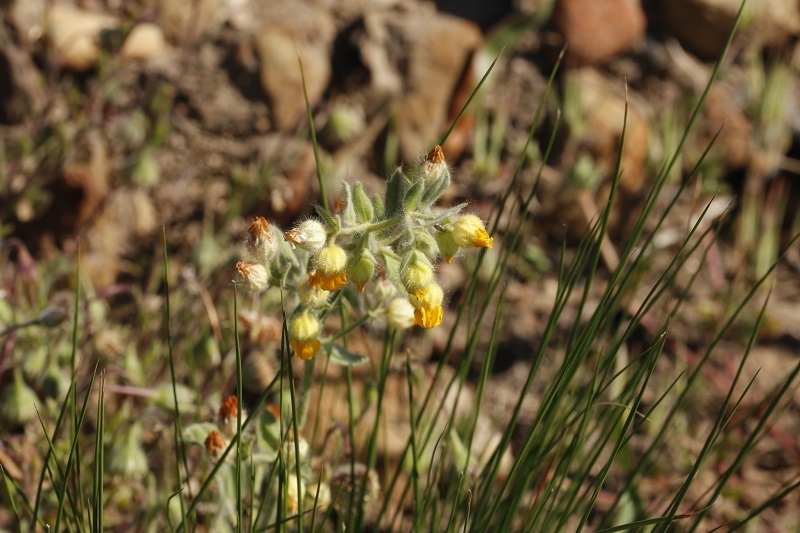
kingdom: Plantae
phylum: Tracheophyta
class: Magnoliopsida
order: Malvales
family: Malvaceae
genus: Hermannia
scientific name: Hermannia althaeifolia
